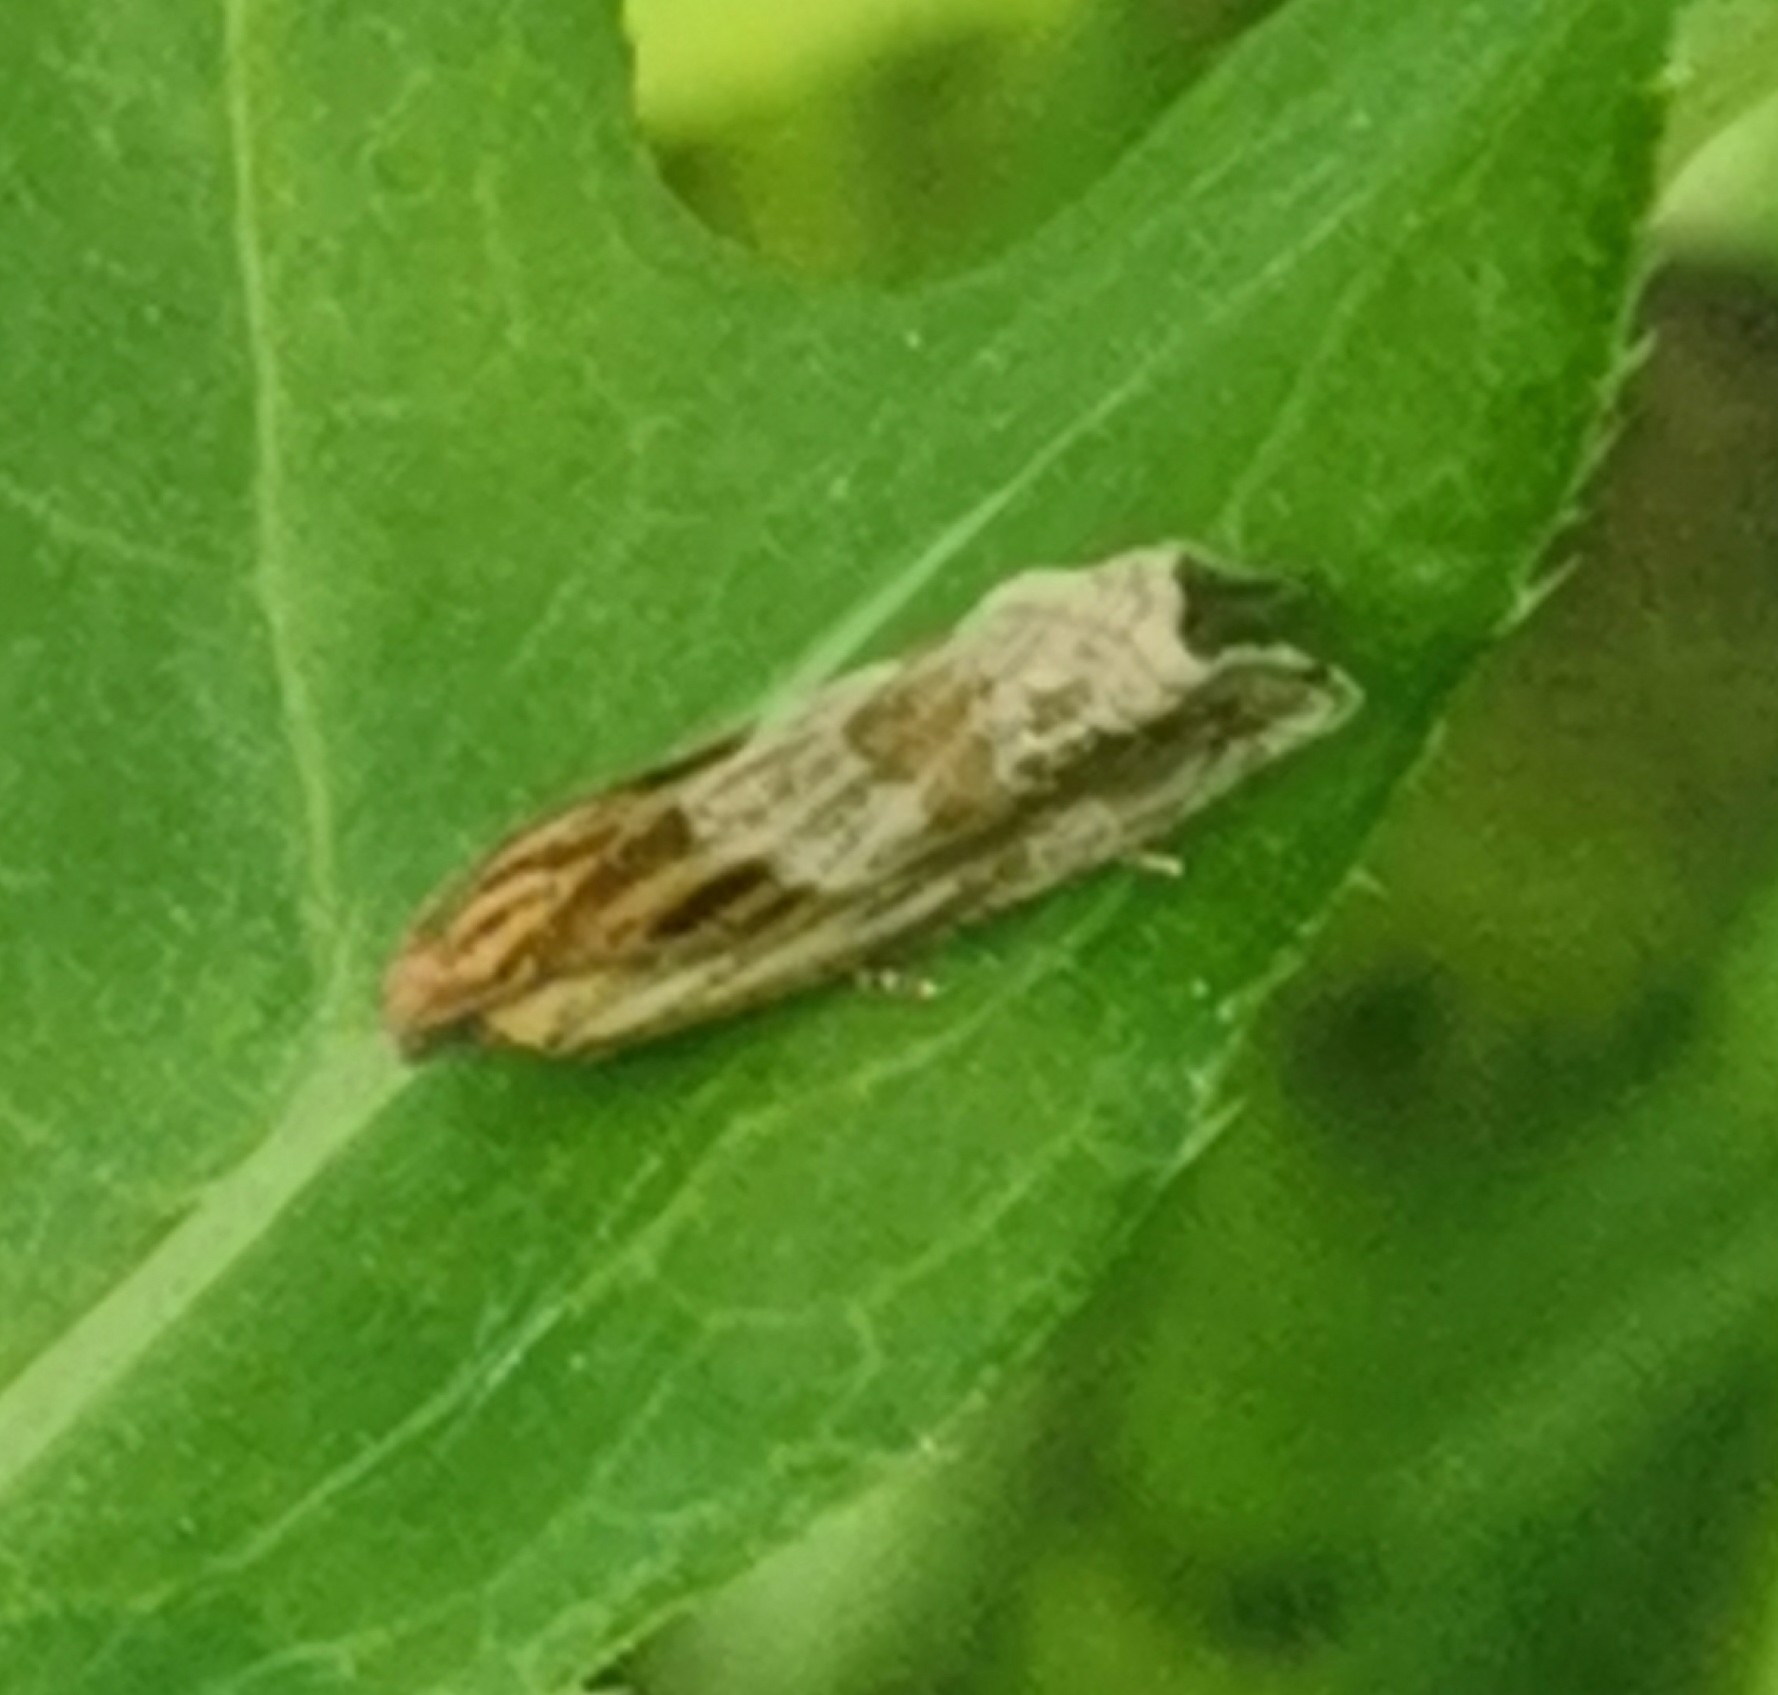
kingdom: Animalia
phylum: Arthropoda
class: Insecta
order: Lepidoptera
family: Tortricidae
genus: Eucosma
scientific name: Eucosma cana
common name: Hoary belle
